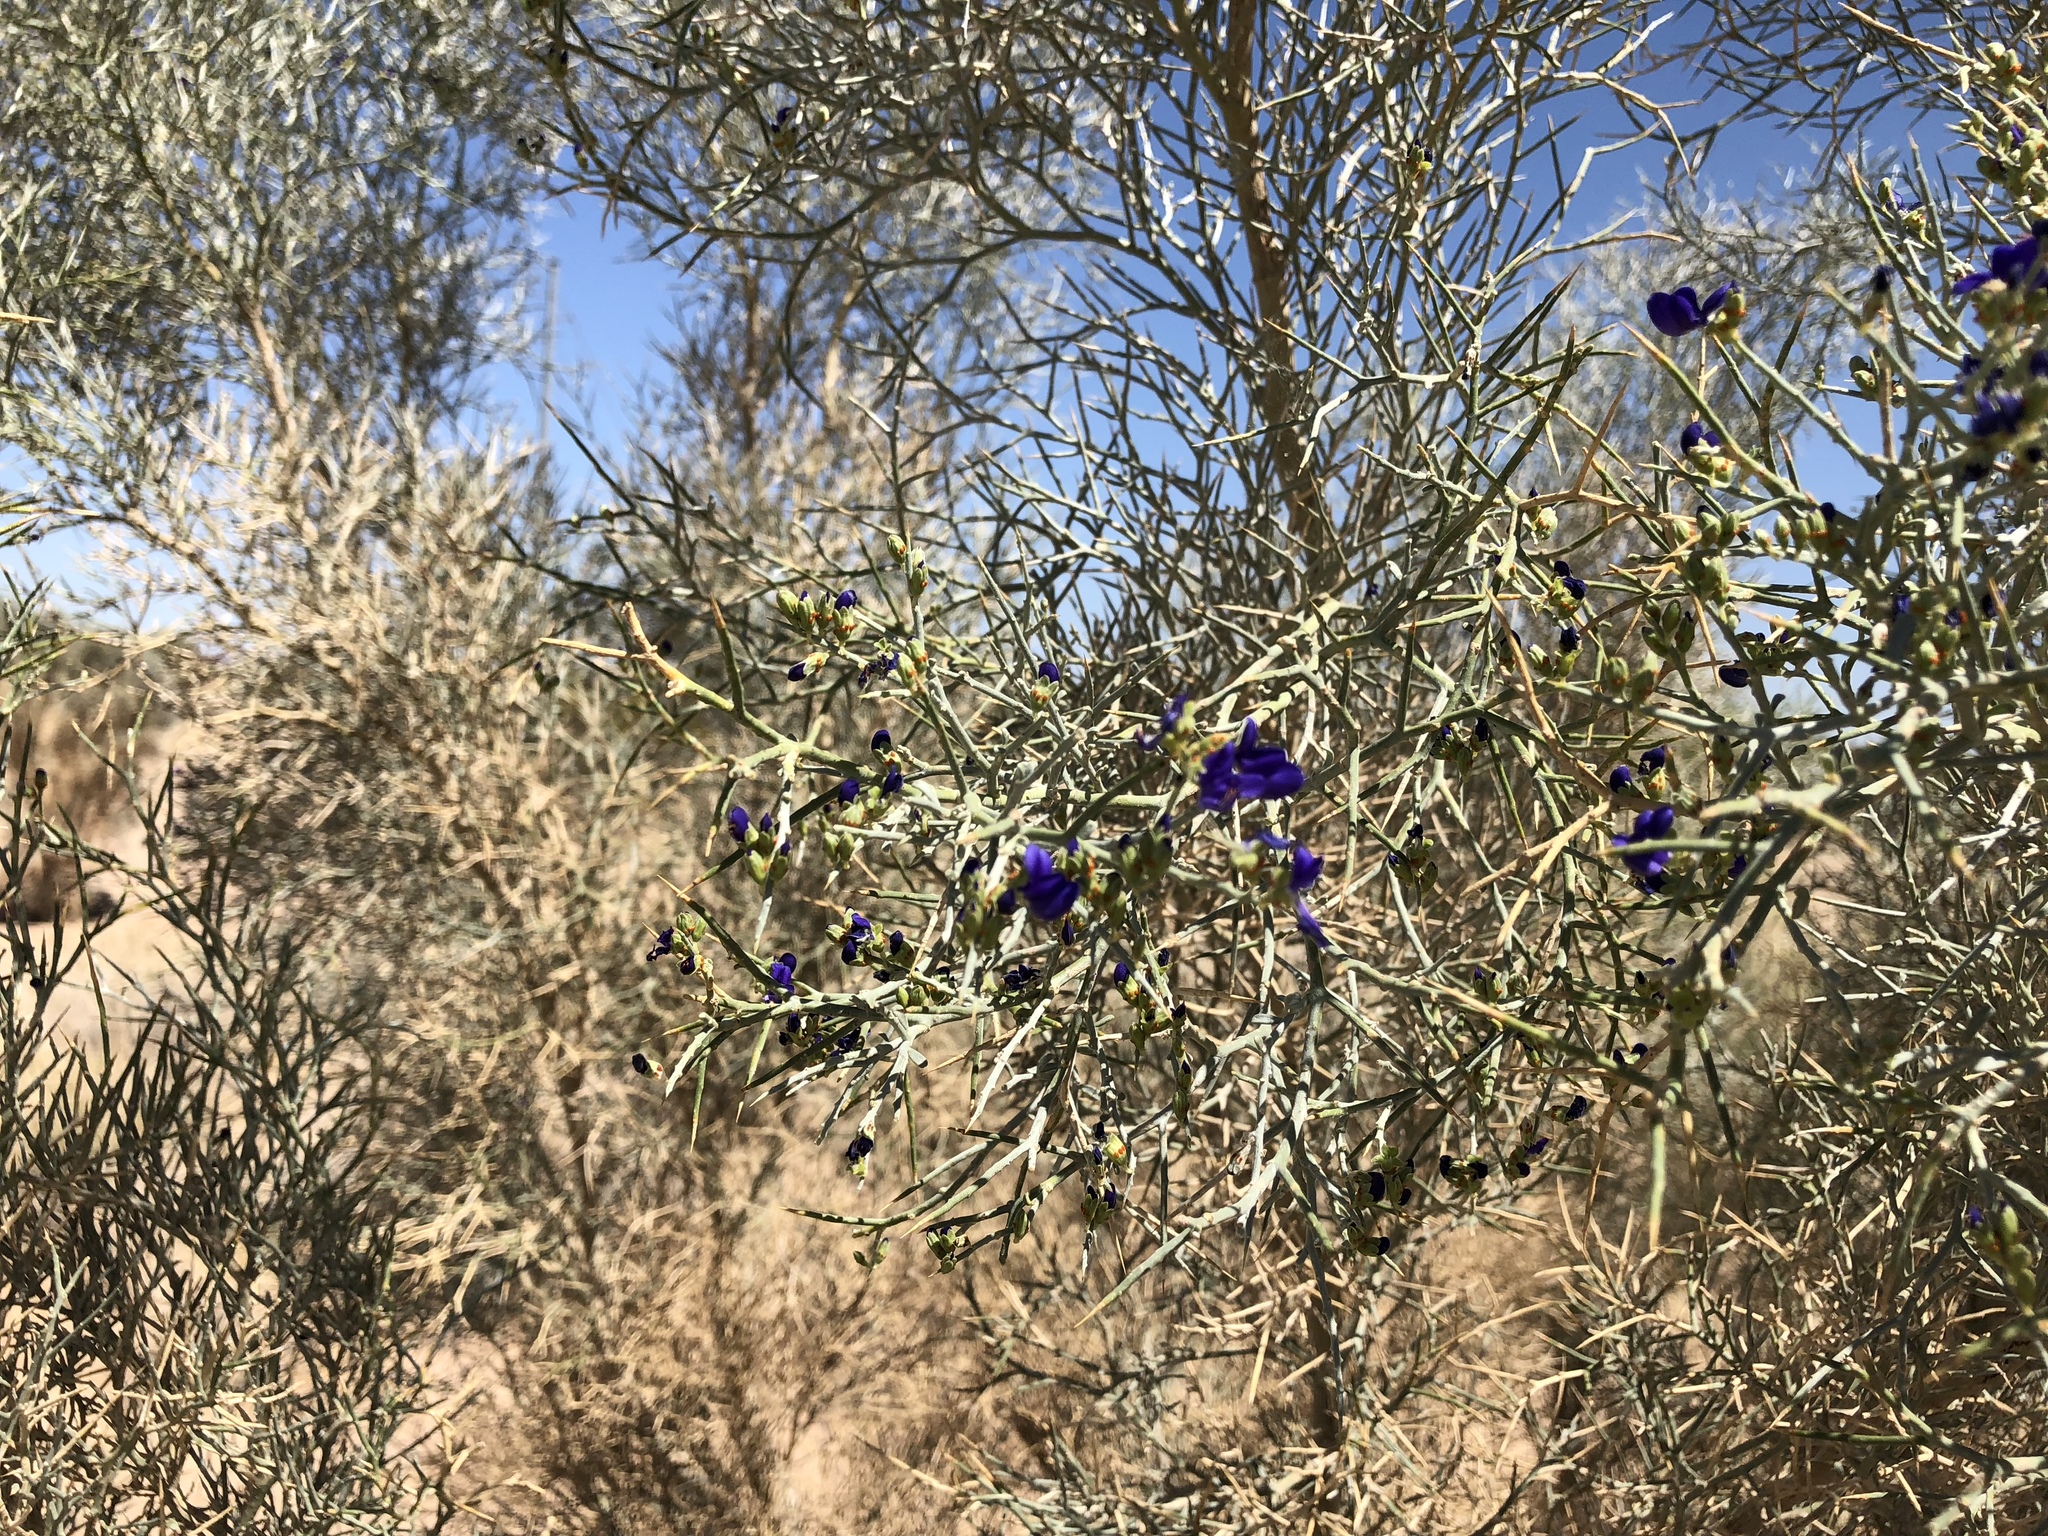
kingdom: Plantae
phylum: Tracheophyta
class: Magnoliopsida
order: Fabales
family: Fabaceae
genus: Psorothamnus
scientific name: Psorothamnus spinosus
